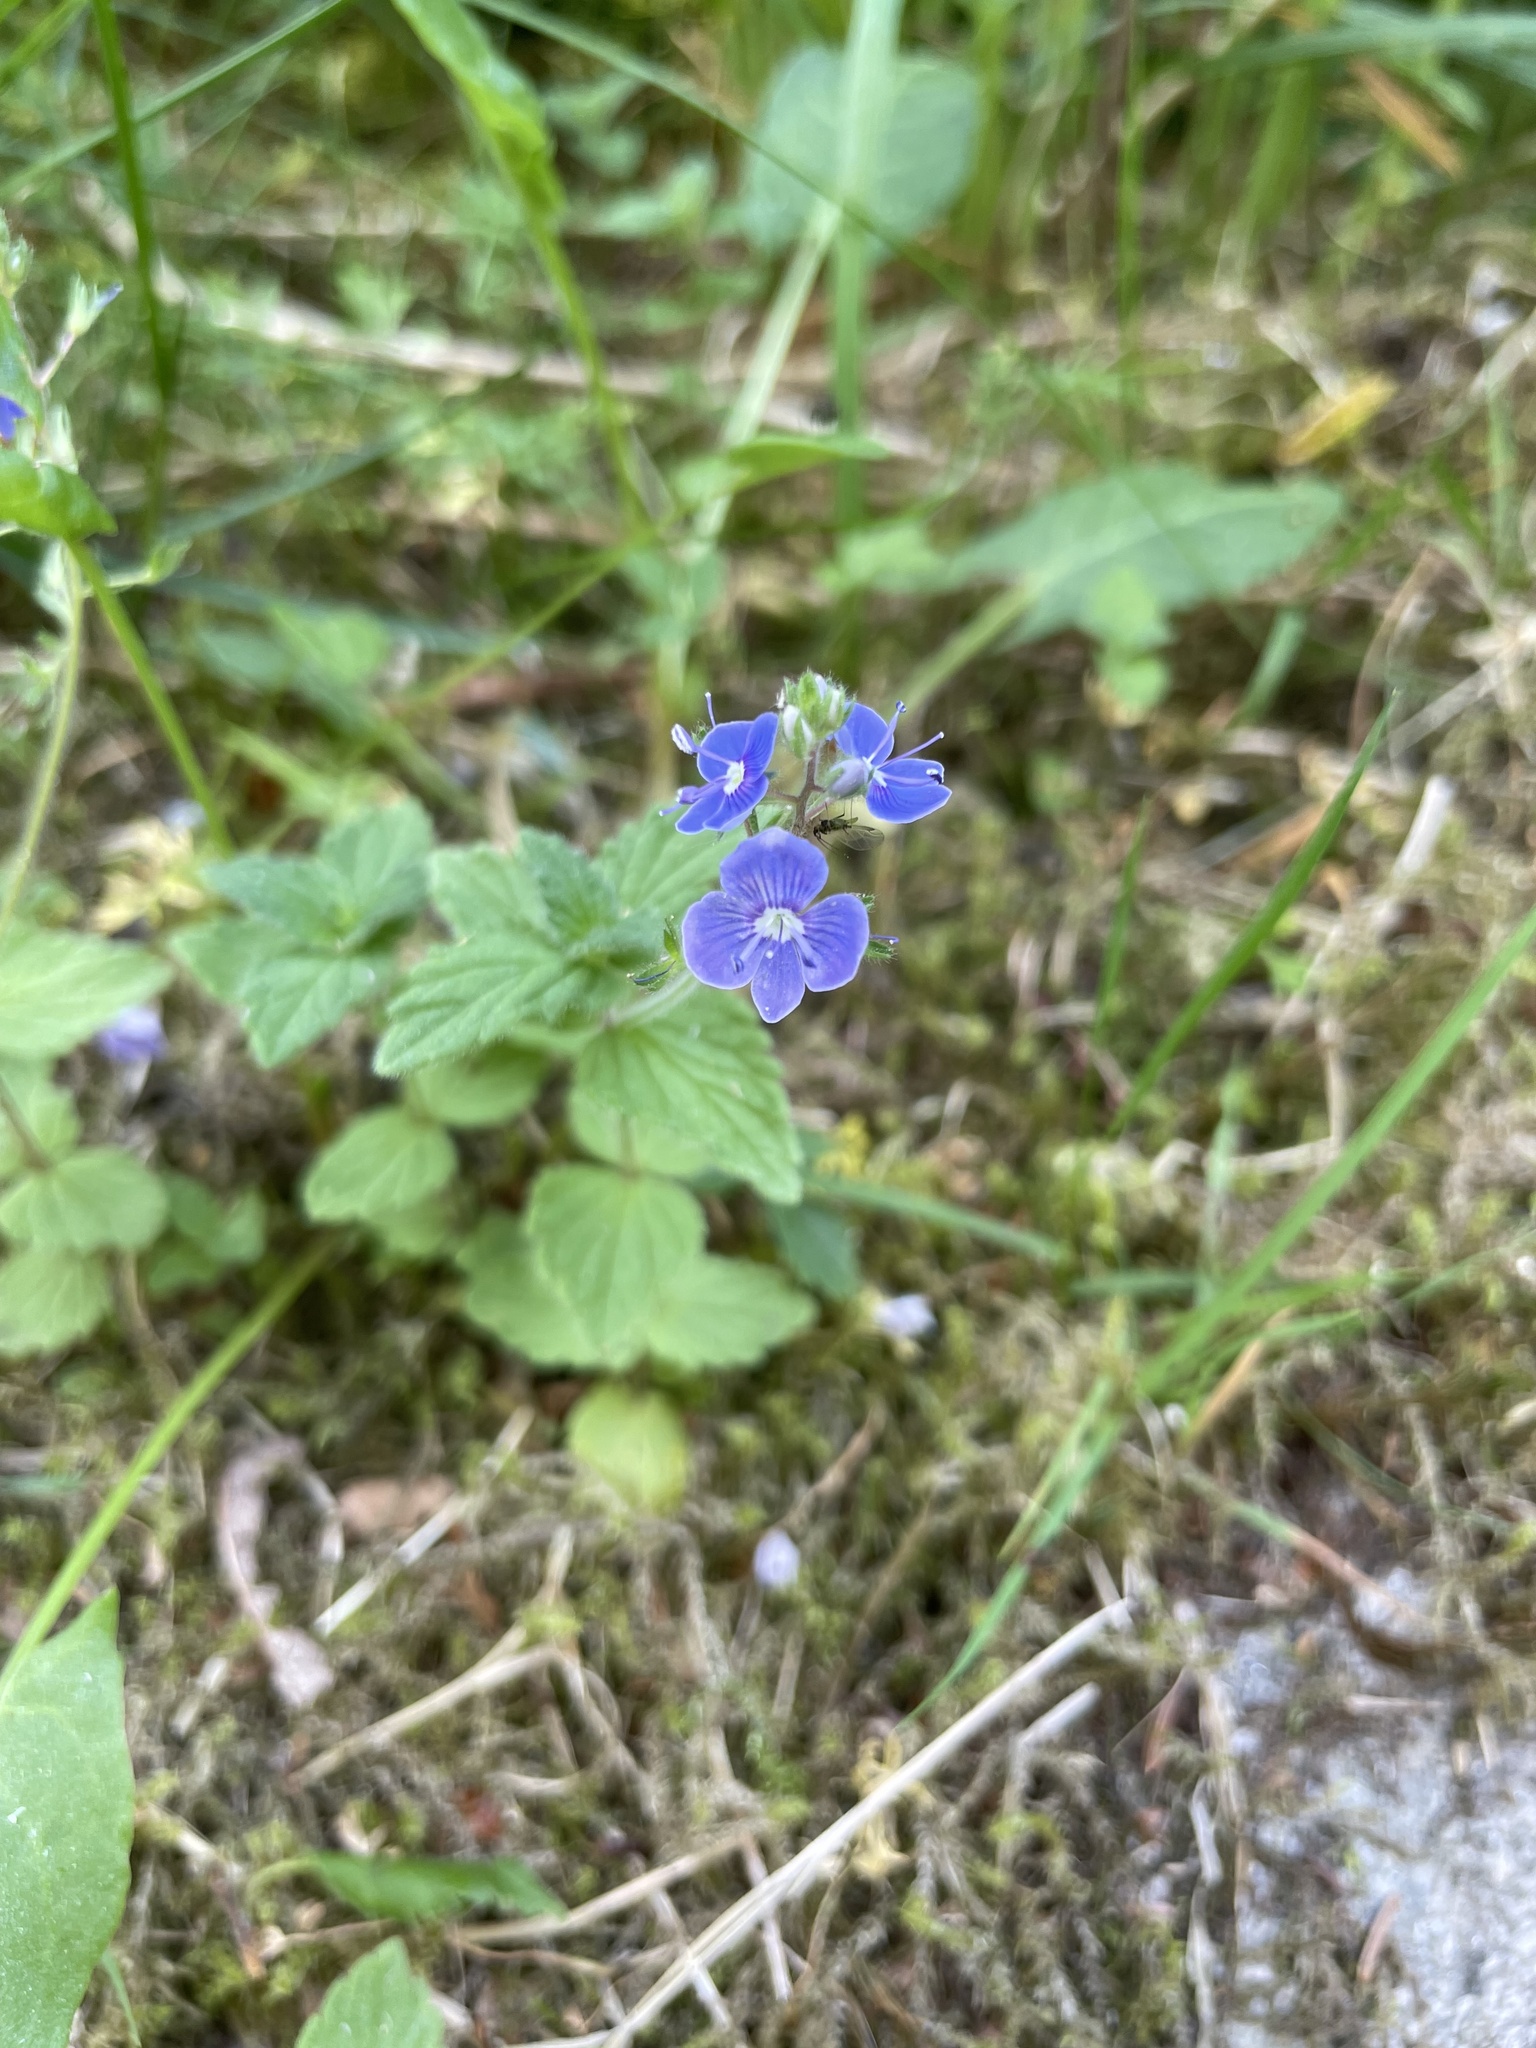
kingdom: Plantae
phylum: Tracheophyta
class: Magnoliopsida
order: Lamiales
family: Plantaginaceae
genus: Veronica
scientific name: Veronica chamaedrys
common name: Germander speedwell
